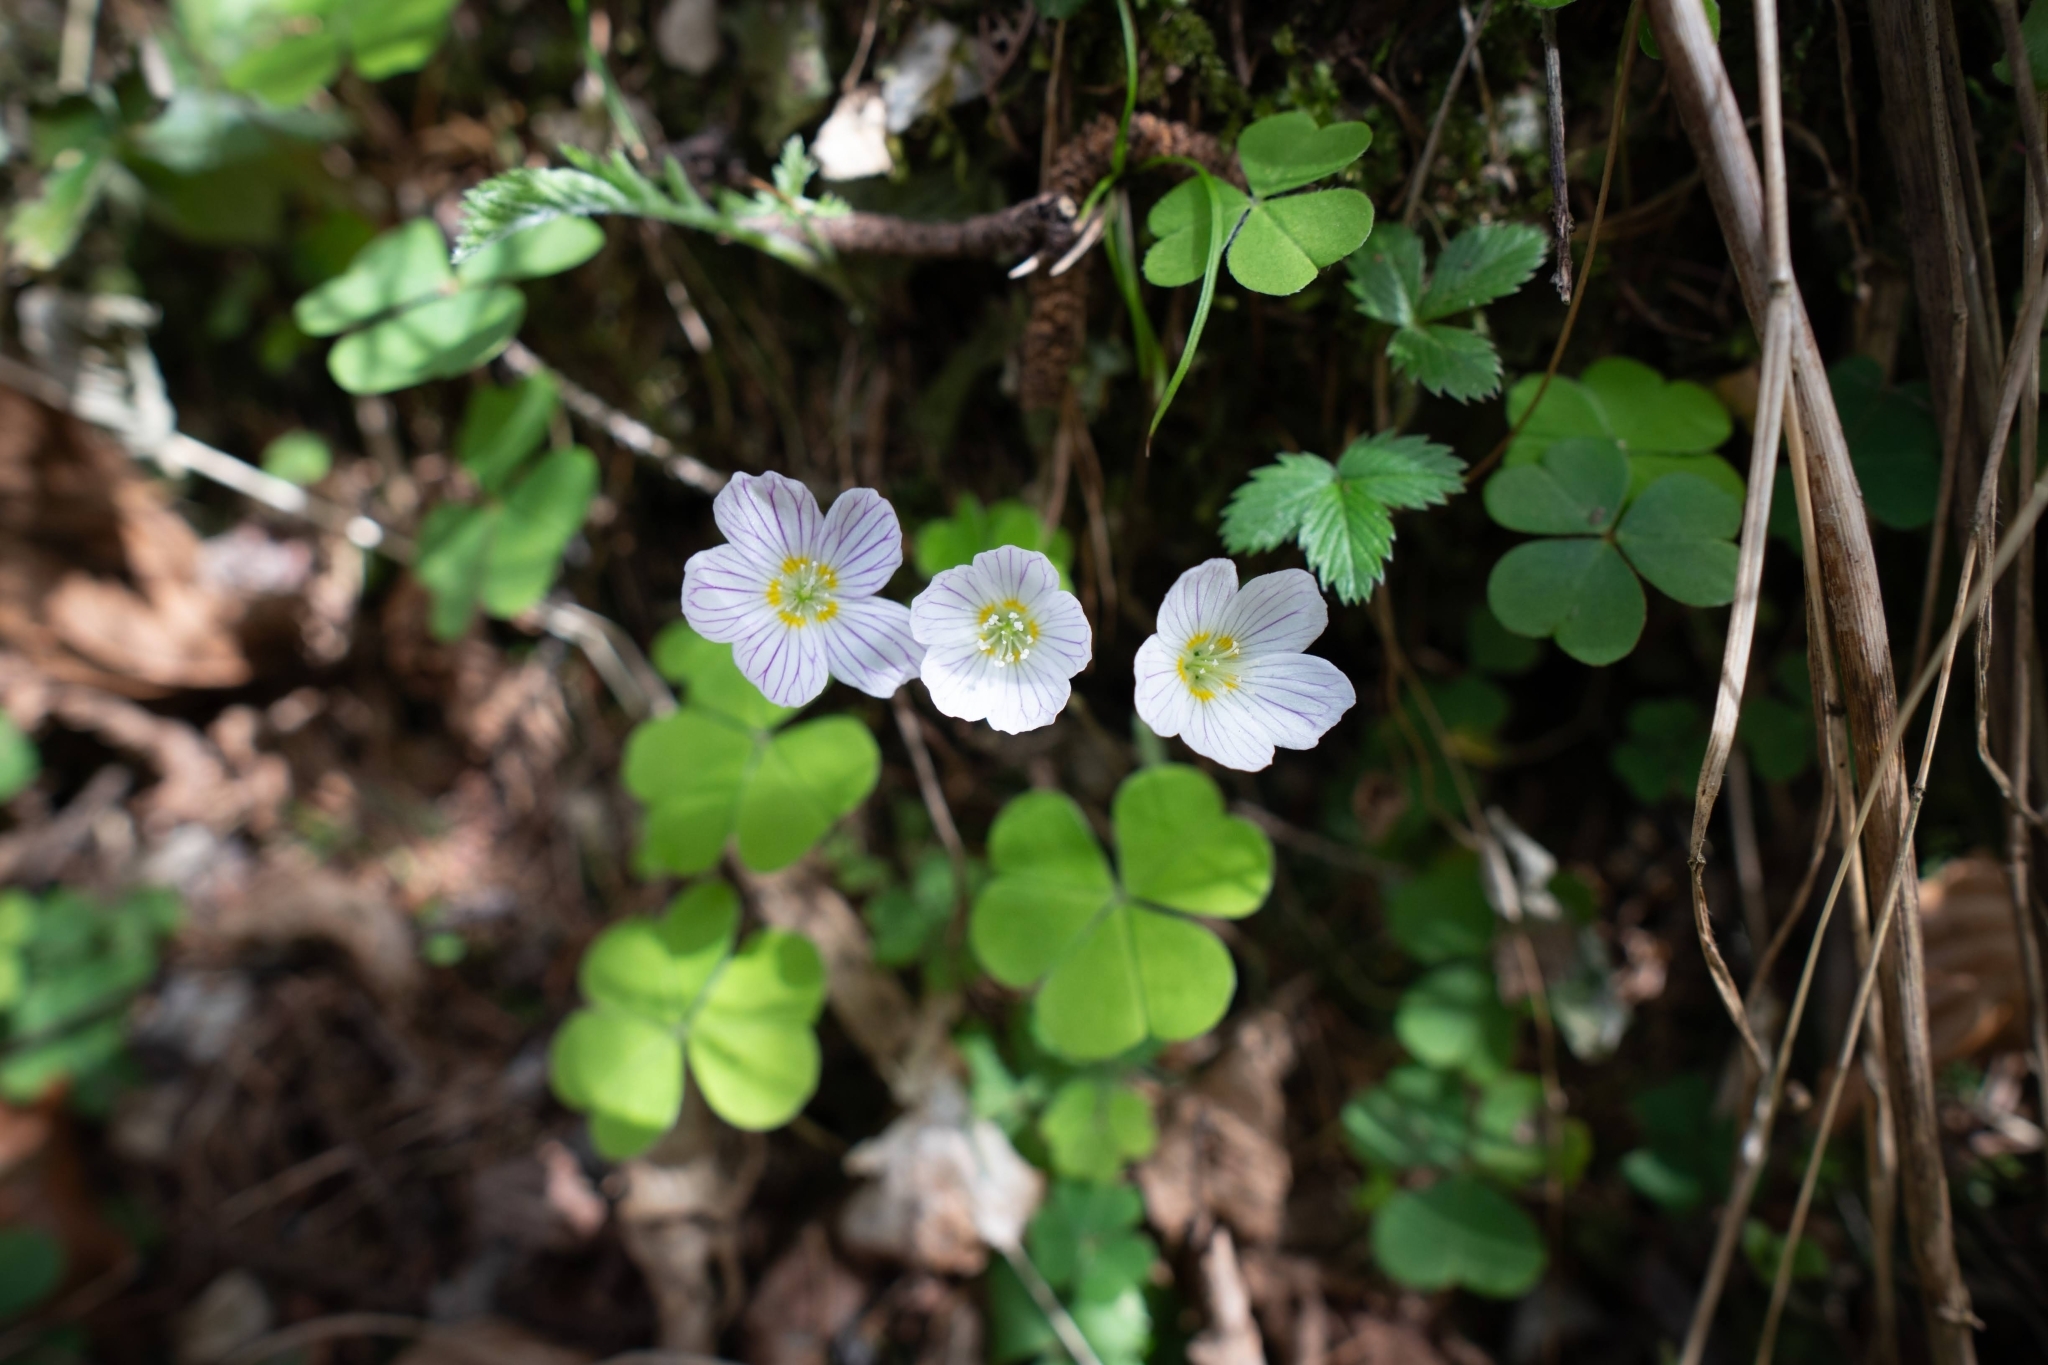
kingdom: Plantae
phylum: Tracheophyta
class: Magnoliopsida
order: Oxalidales
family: Oxalidaceae
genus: Oxalis
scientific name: Oxalis acetosella
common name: Wood-sorrel
